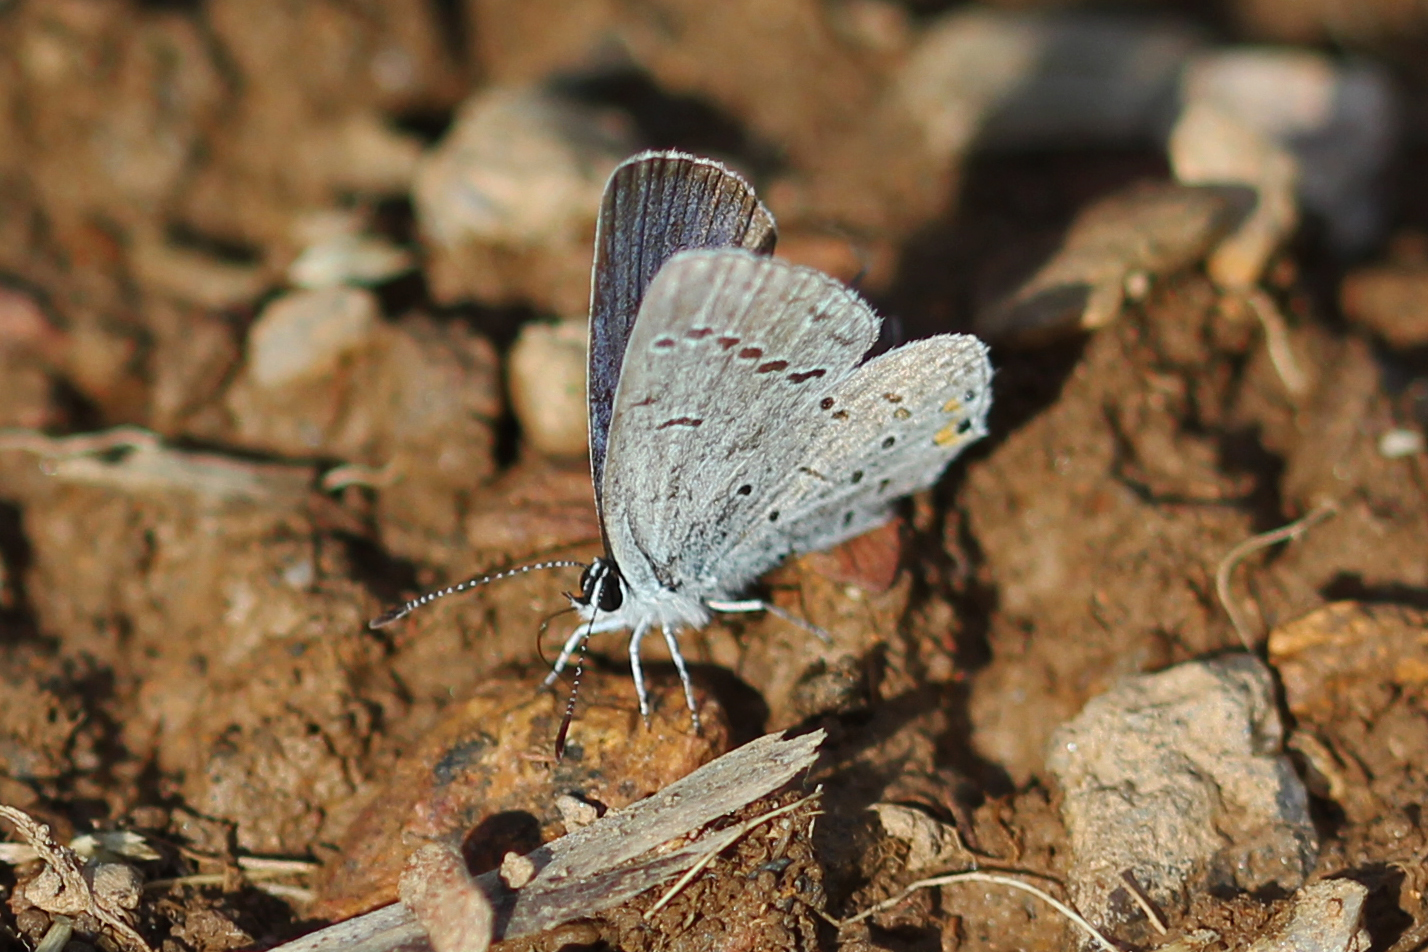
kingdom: Animalia
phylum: Arthropoda
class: Insecta
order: Lepidoptera
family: Lycaenidae
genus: Elkalyce
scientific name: Elkalyce comyntas
